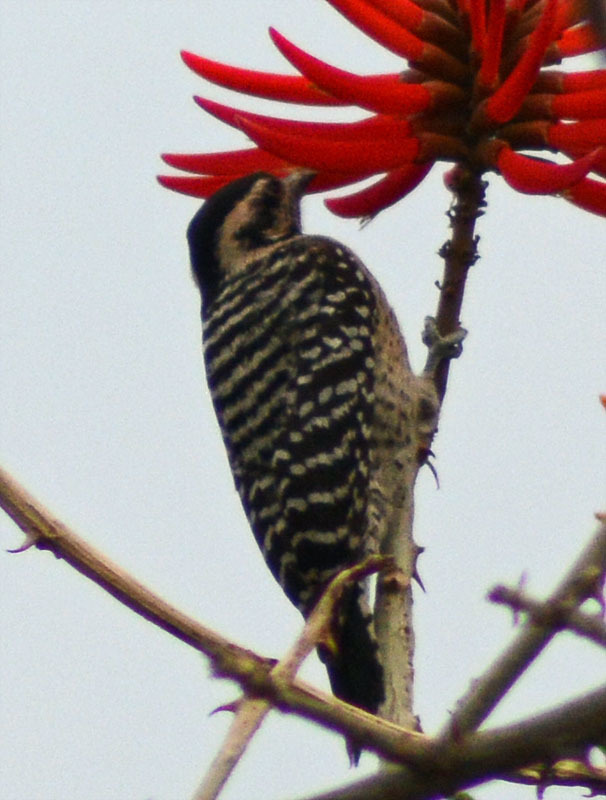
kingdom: Animalia
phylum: Chordata
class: Aves
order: Piciformes
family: Picidae
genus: Dryobates
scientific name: Dryobates scalaris
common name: Ladder-backed woodpecker
